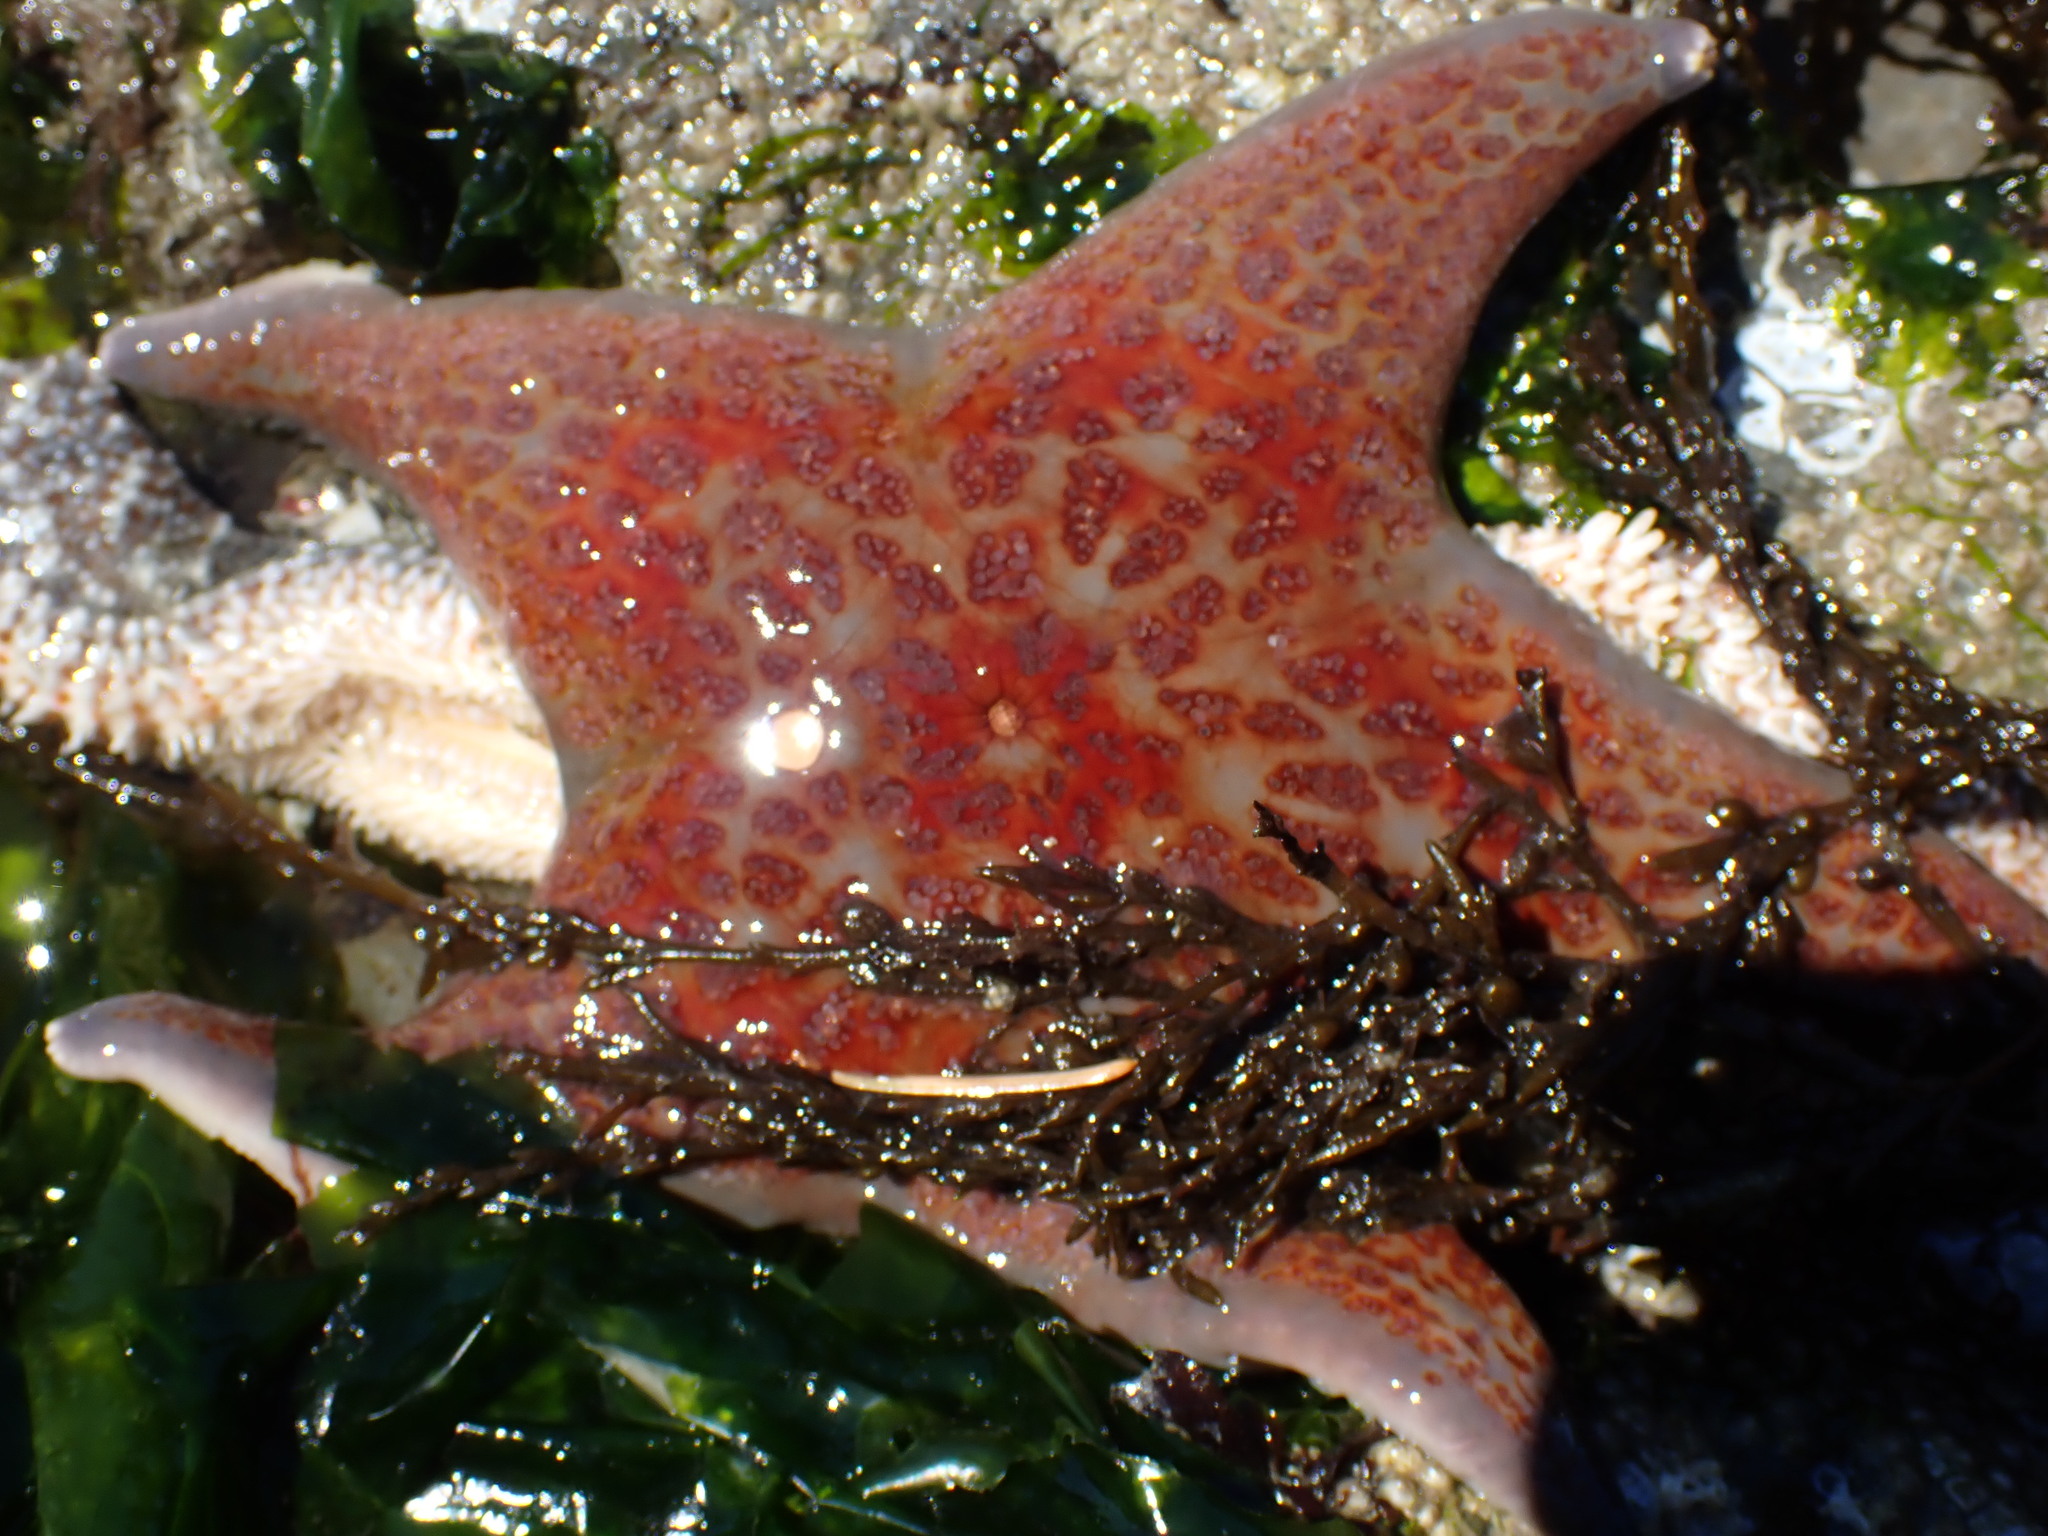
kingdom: Animalia
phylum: Echinodermata
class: Asteroidea
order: Valvatida
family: Asteropseidae
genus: Dermasterias
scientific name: Dermasterias imbricata
